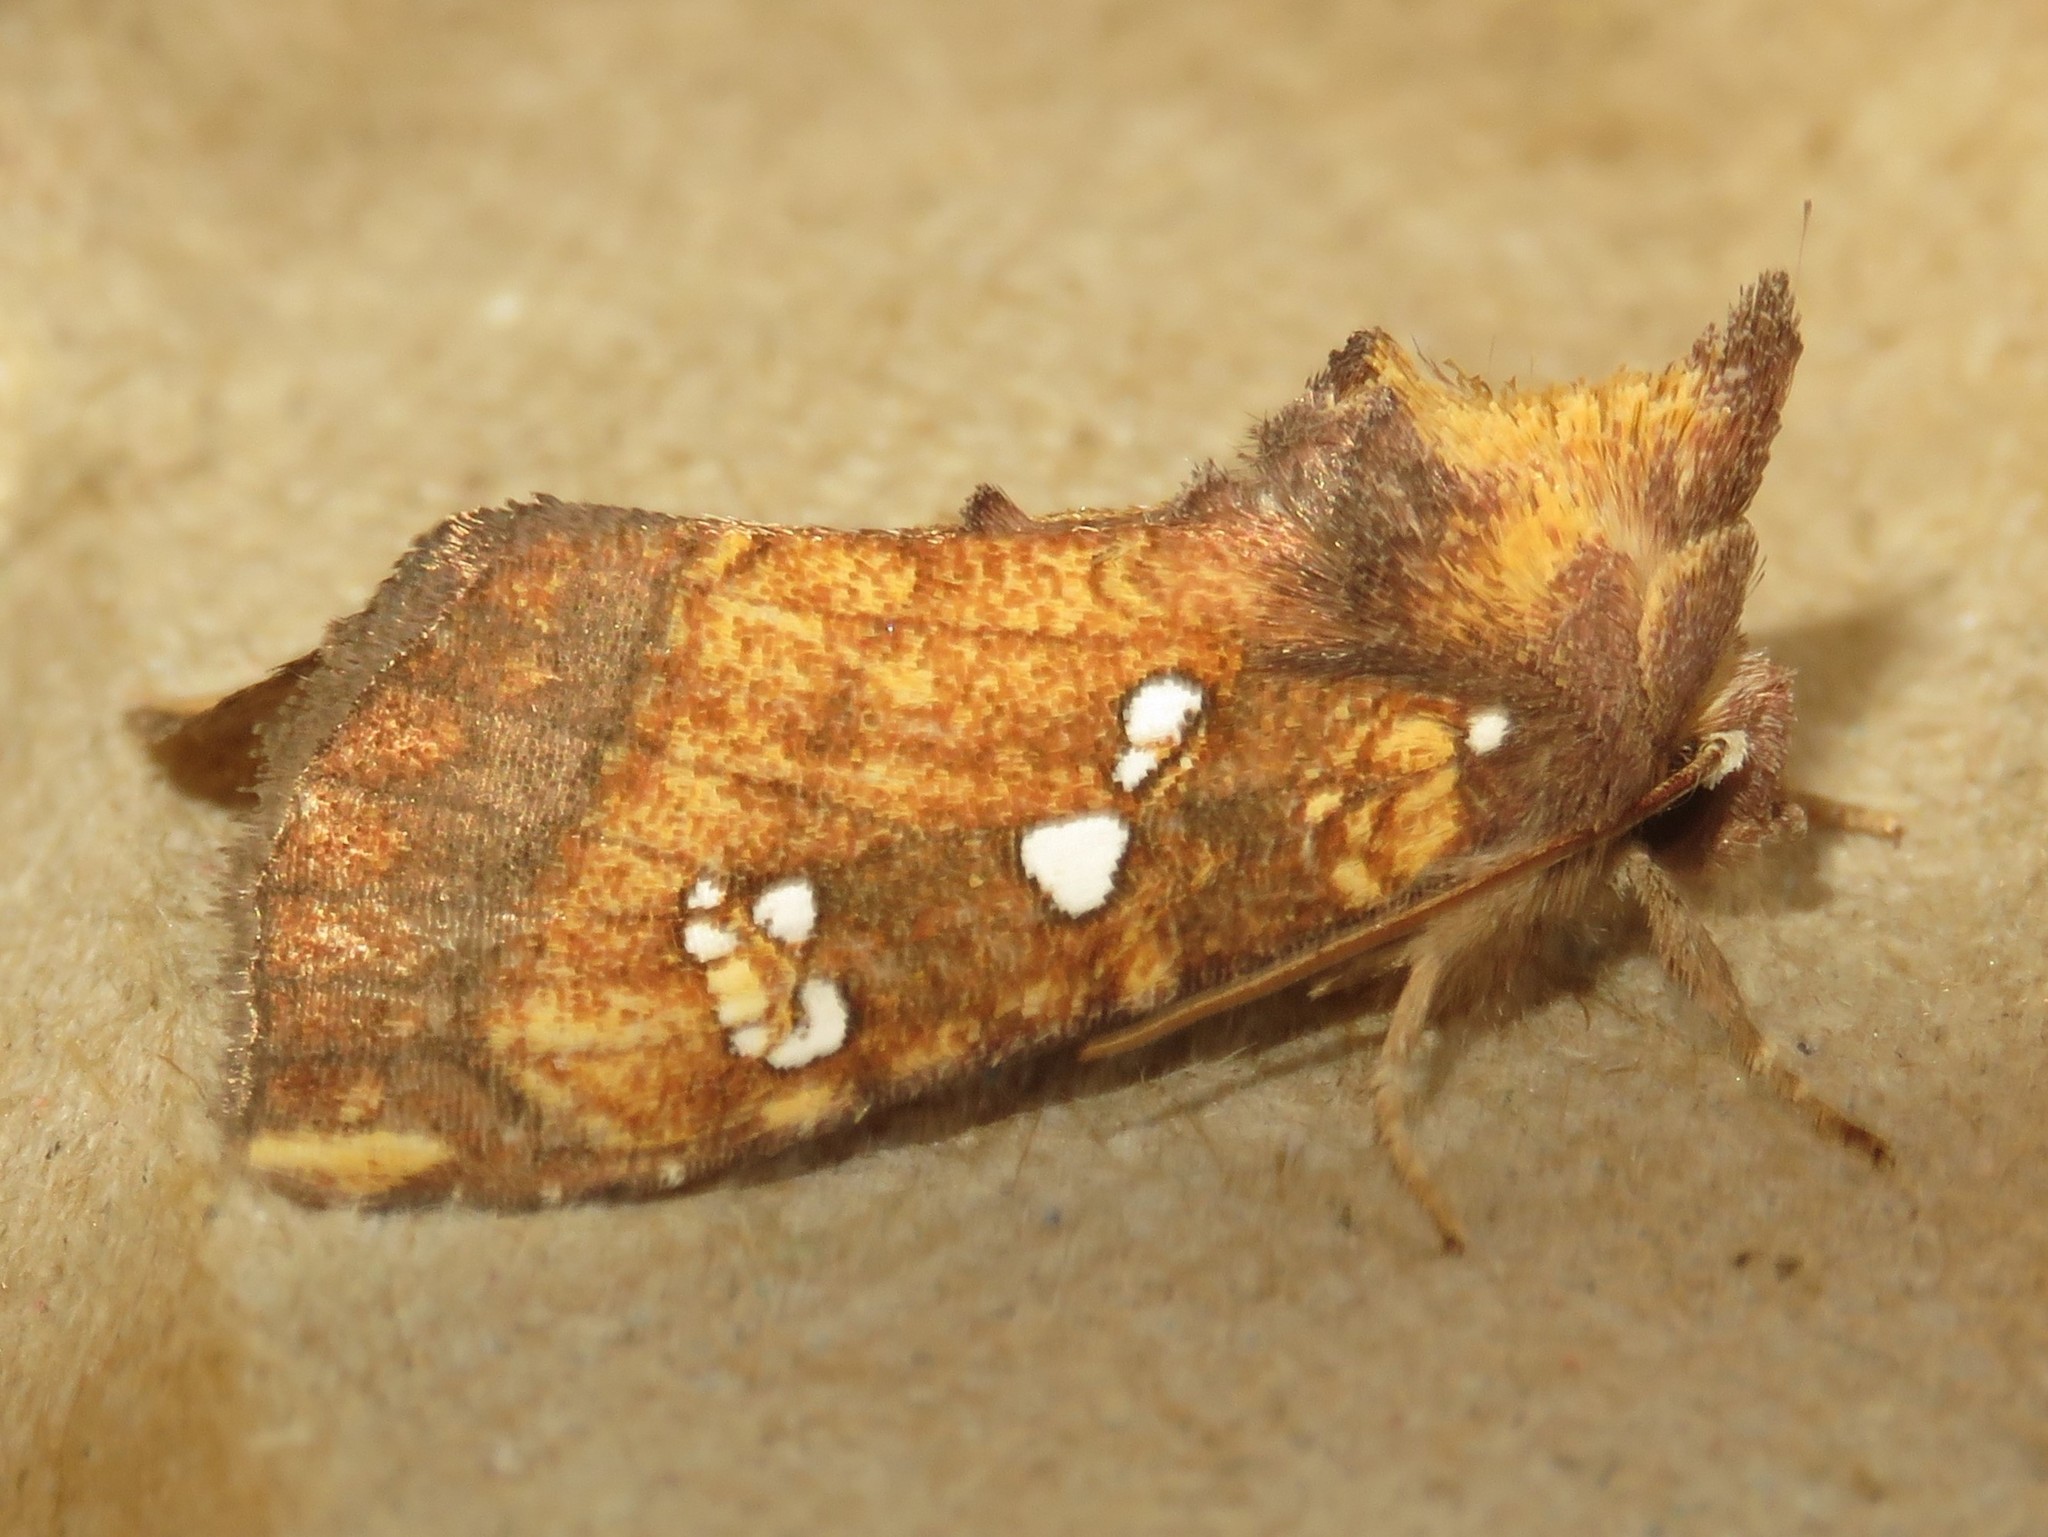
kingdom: Animalia
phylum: Arthropoda
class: Insecta
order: Lepidoptera
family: Noctuidae
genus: Papaipema
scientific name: Papaipema arctivorens
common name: Northern burdock borer moth
